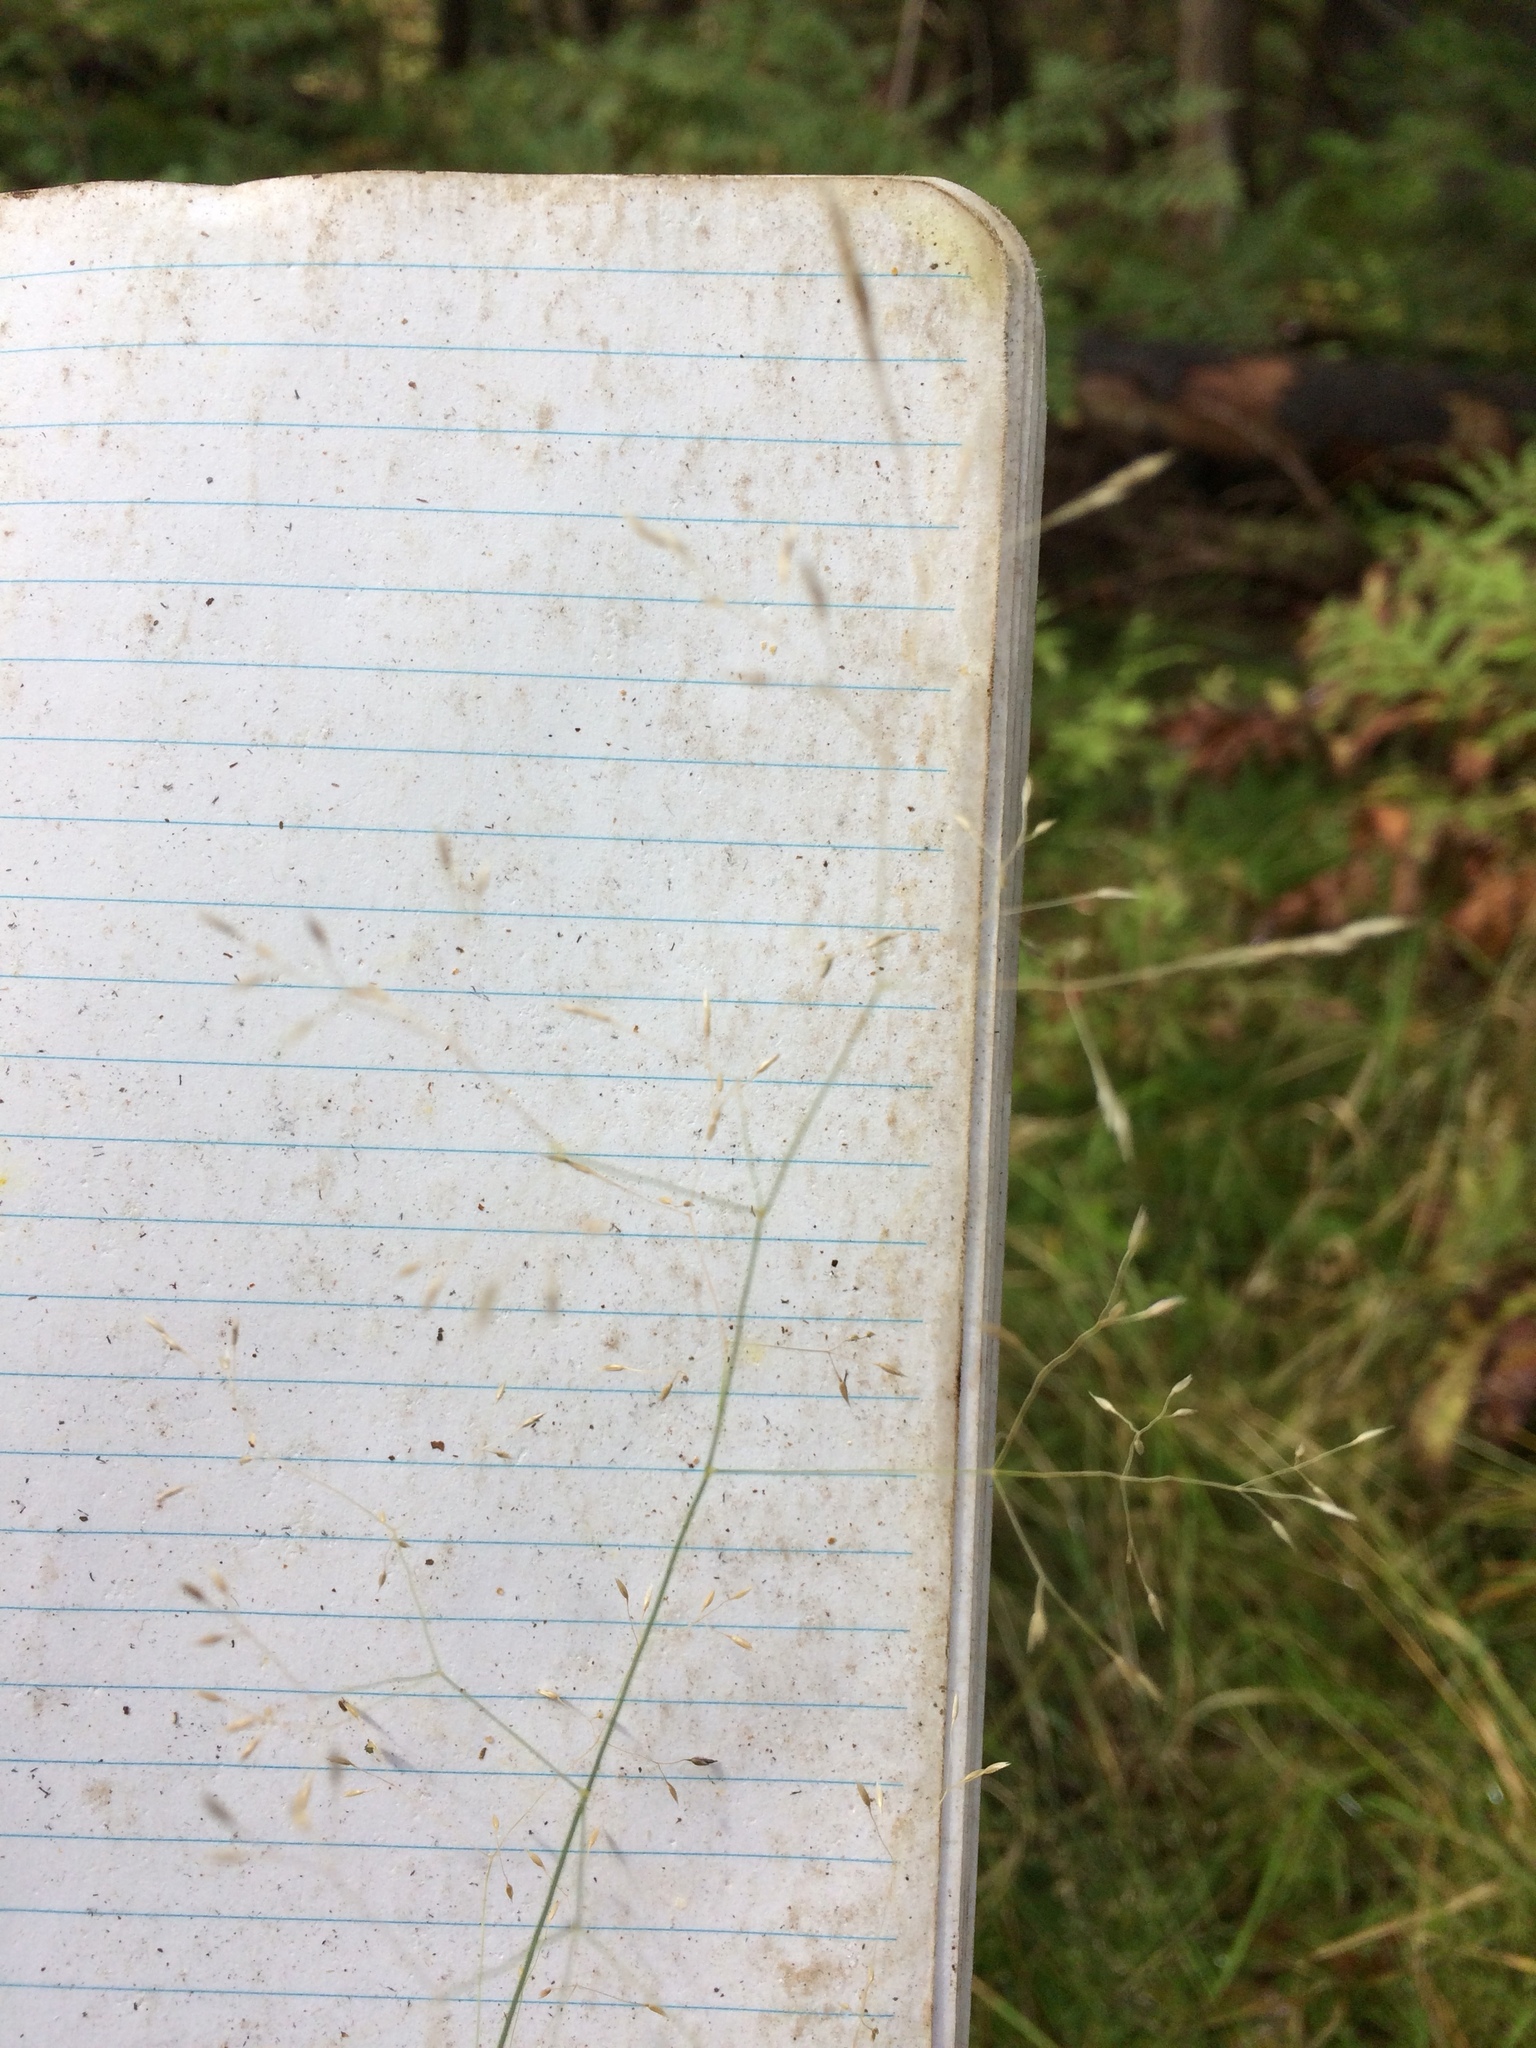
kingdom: Plantae
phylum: Tracheophyta
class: Liliopsida
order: Poales
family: Poaceae
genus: Agrostis
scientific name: Agrostis perennans
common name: Autumn bent
